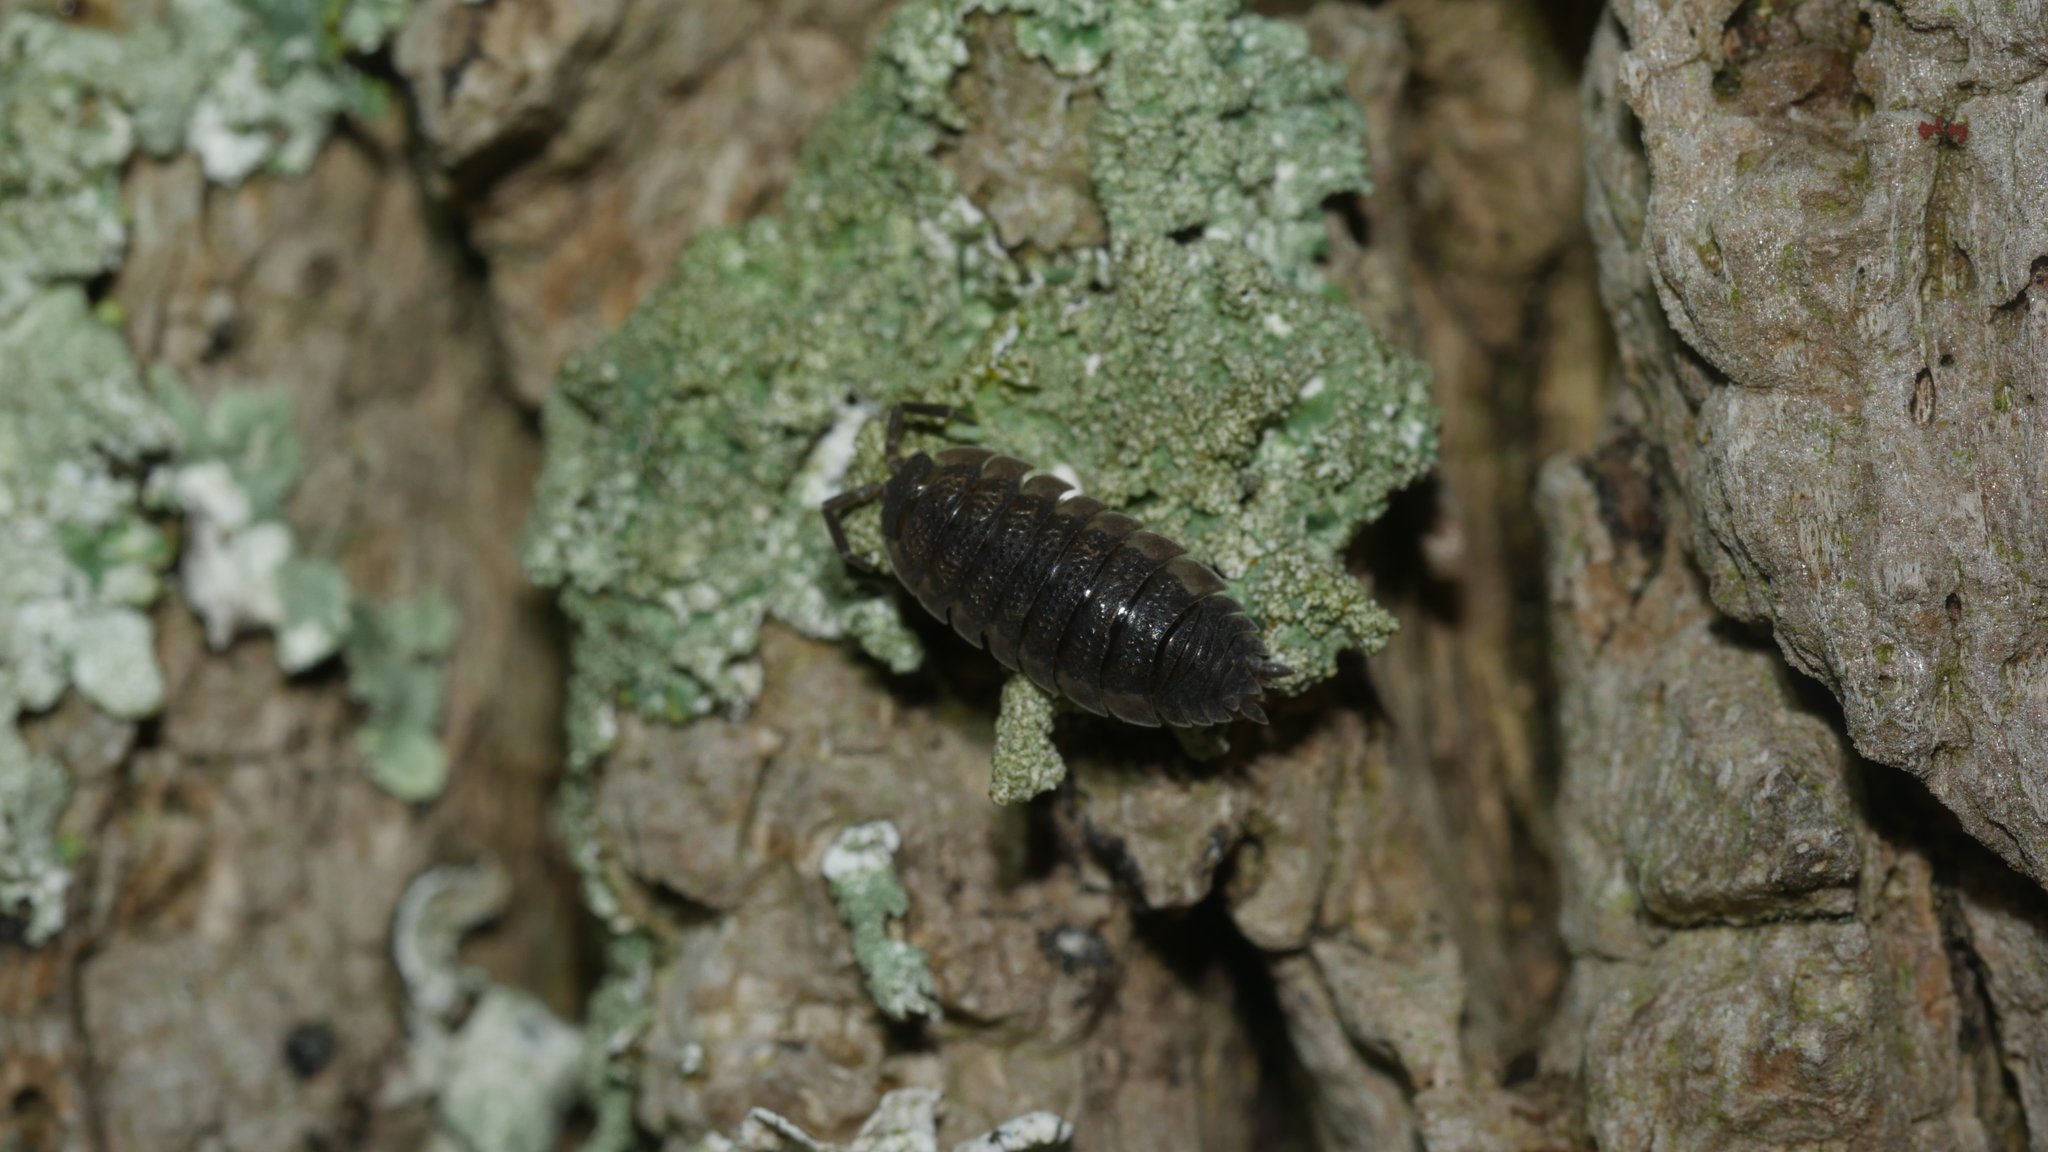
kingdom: Animalia
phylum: Arthropoda
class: Malacostraca
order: Isopoda
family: Porcellionidae
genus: Porcellio
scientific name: Porcellio scaber
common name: Common rough woodlouse
